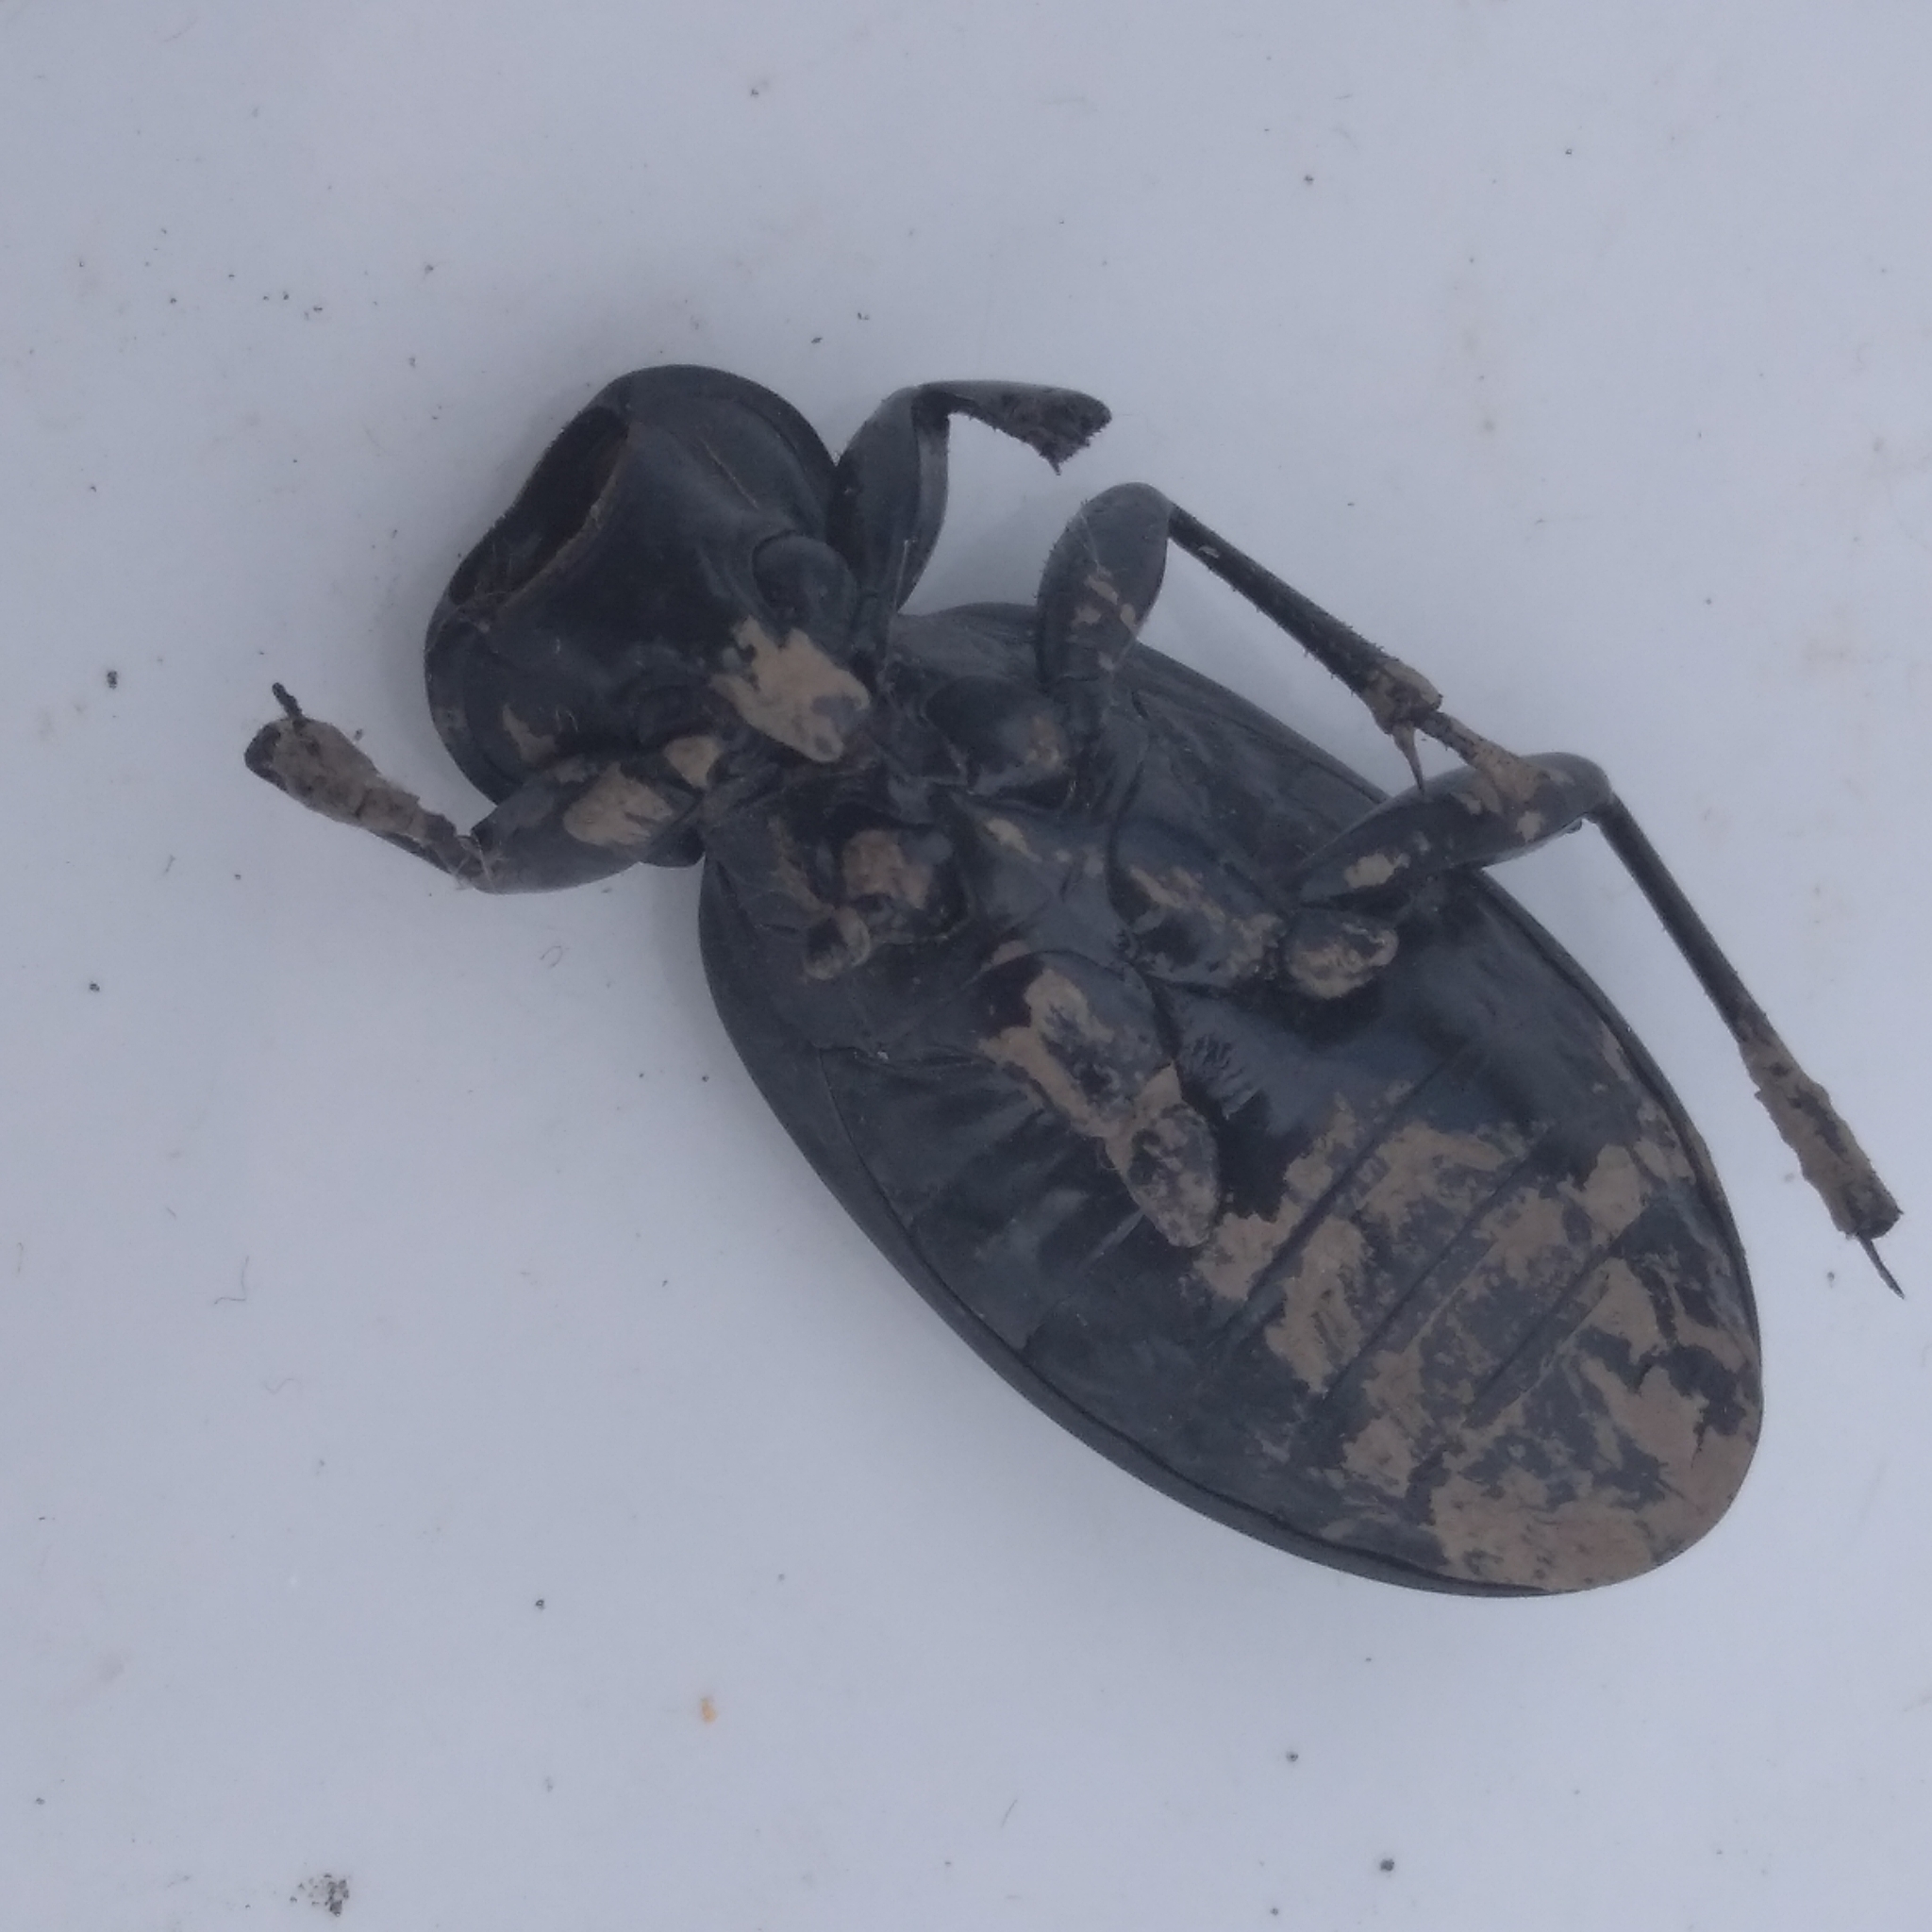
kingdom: Animalia
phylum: Arthropoda
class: Insecta
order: Coleoptera
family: Carabidae
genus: Carabus
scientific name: Carabus coriaceus
